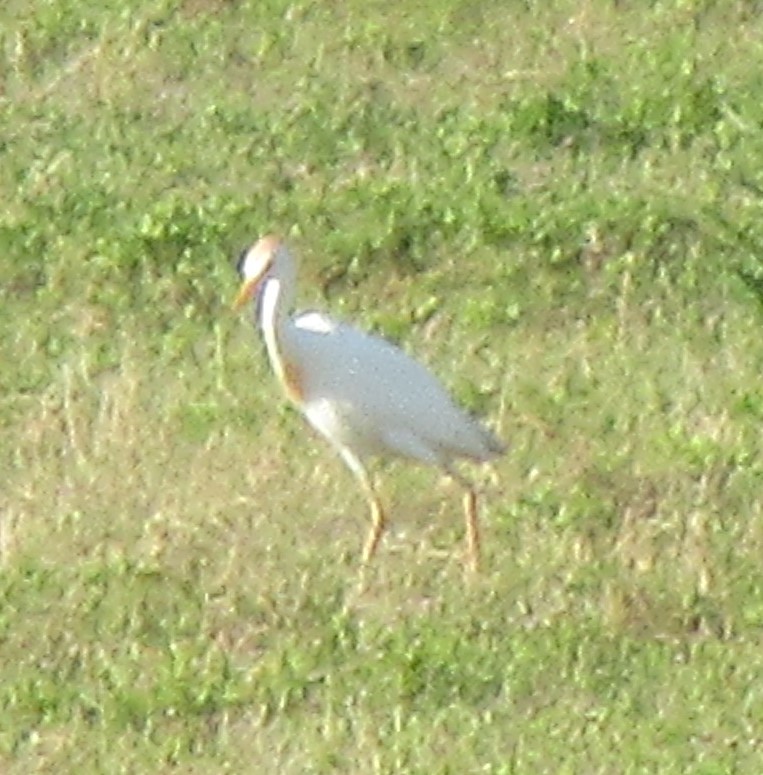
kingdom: Animalia
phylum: Chordata
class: Aves
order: Pelecaniformes
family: Ardeidae
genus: Bubulcus
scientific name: Bubulcus ibis
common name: Cattle egret
